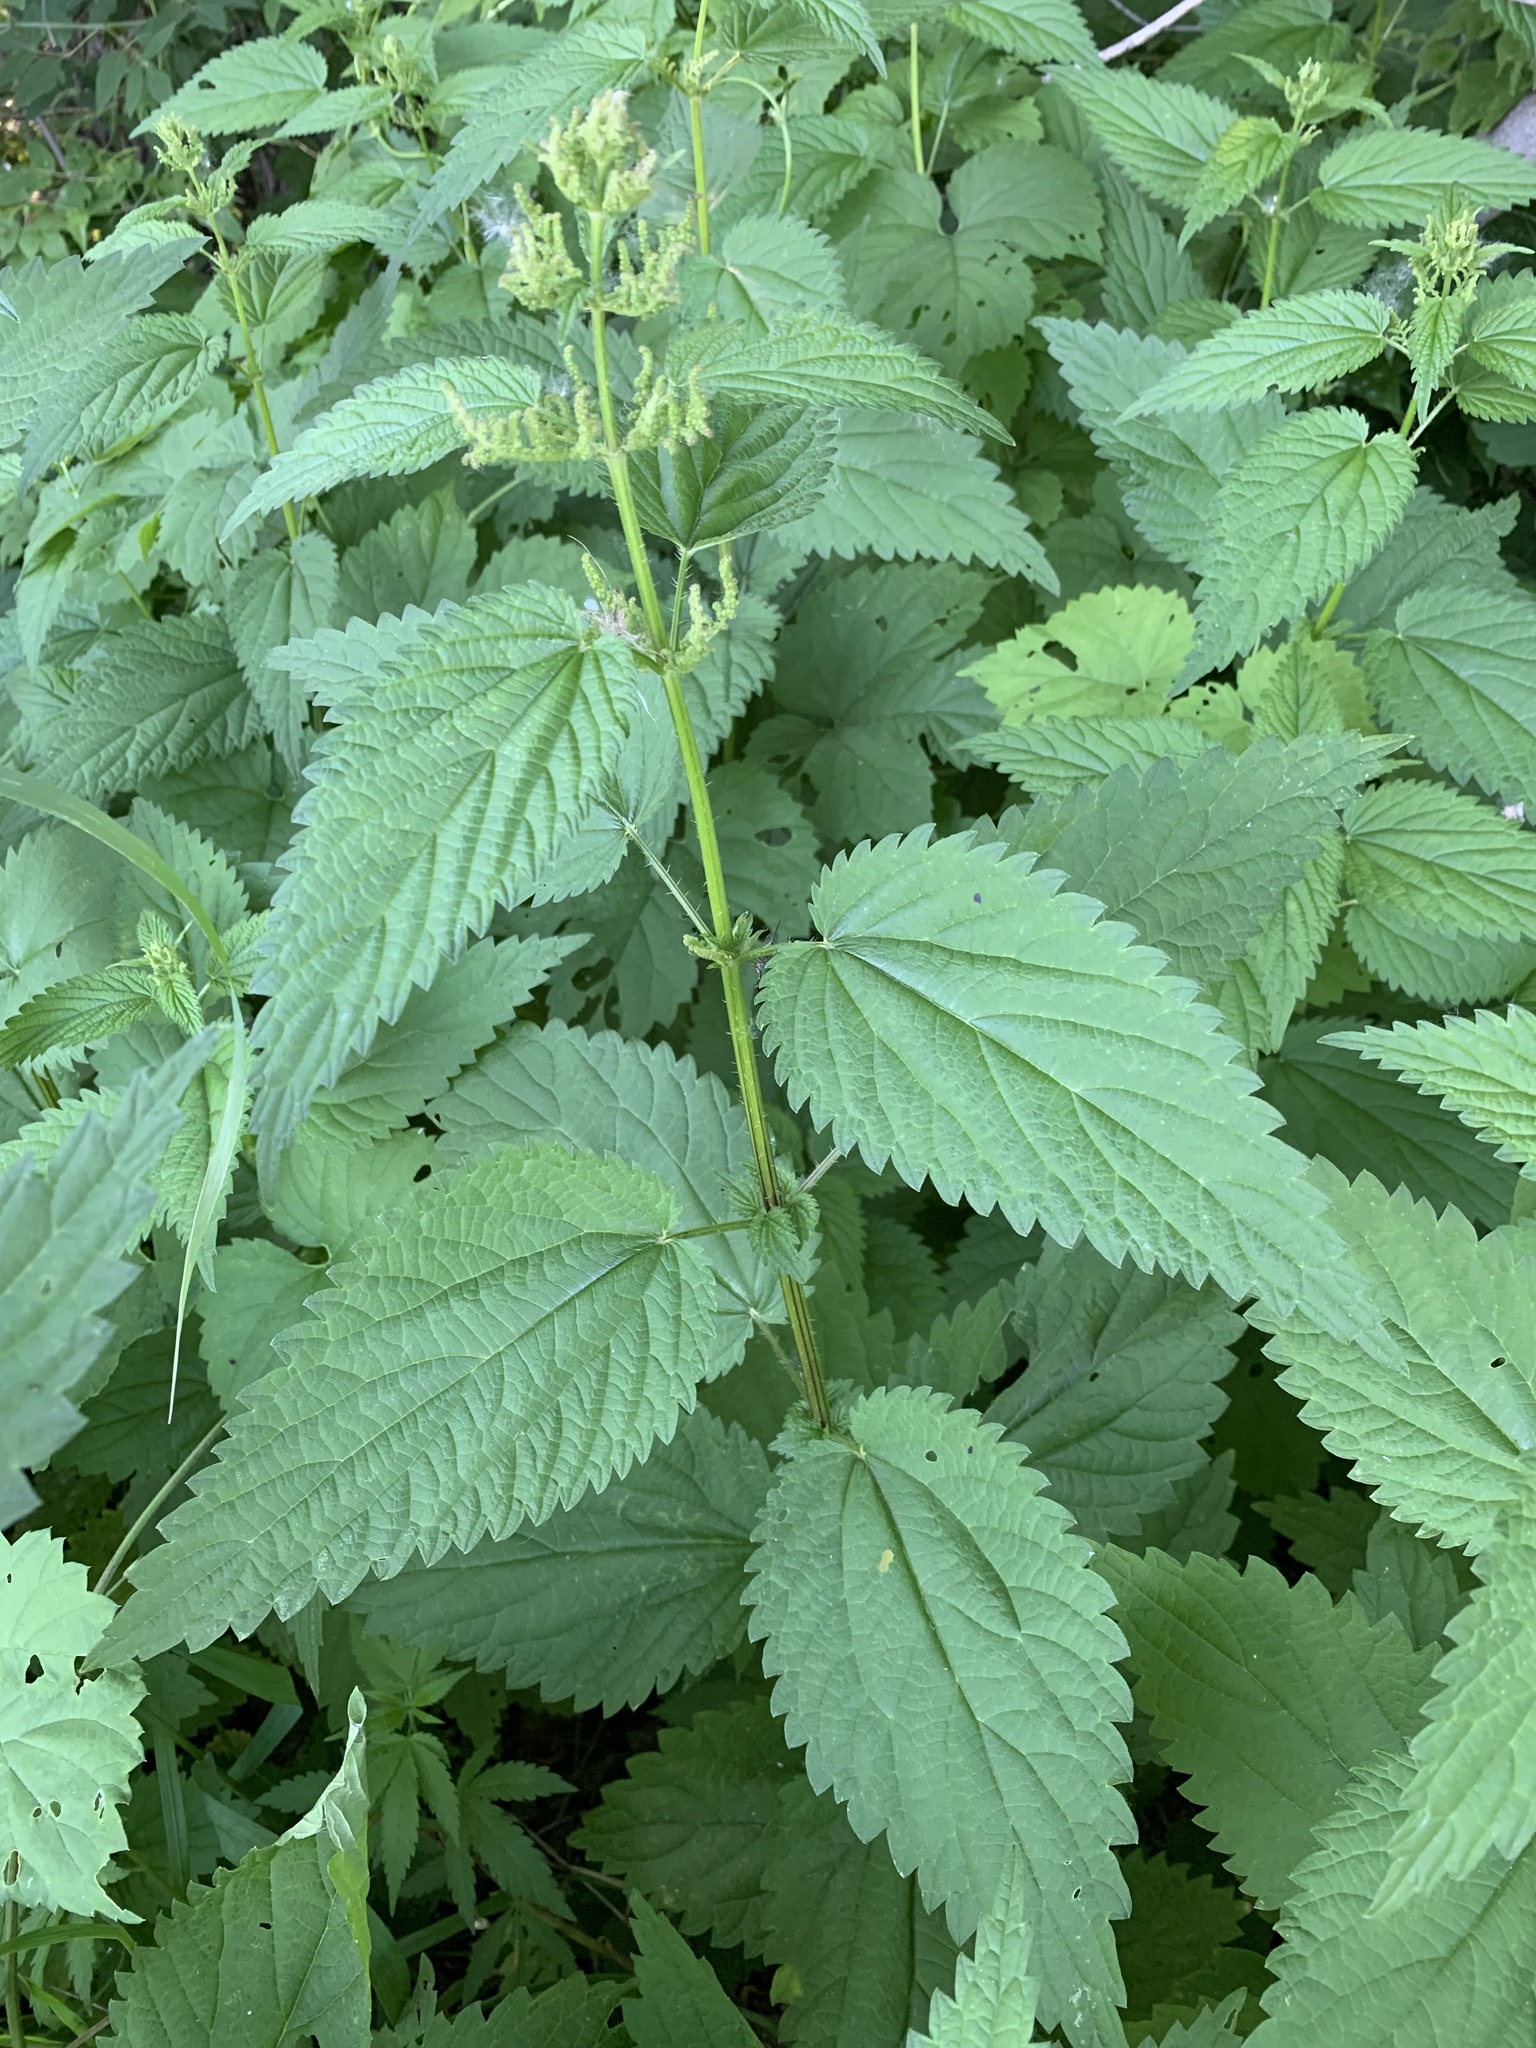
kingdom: Plantae
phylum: Tracheophyta
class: Magnoliopsida
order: Rosales
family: Urticaceae
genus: Urtica
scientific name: Urtica dioica
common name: Common nettle
